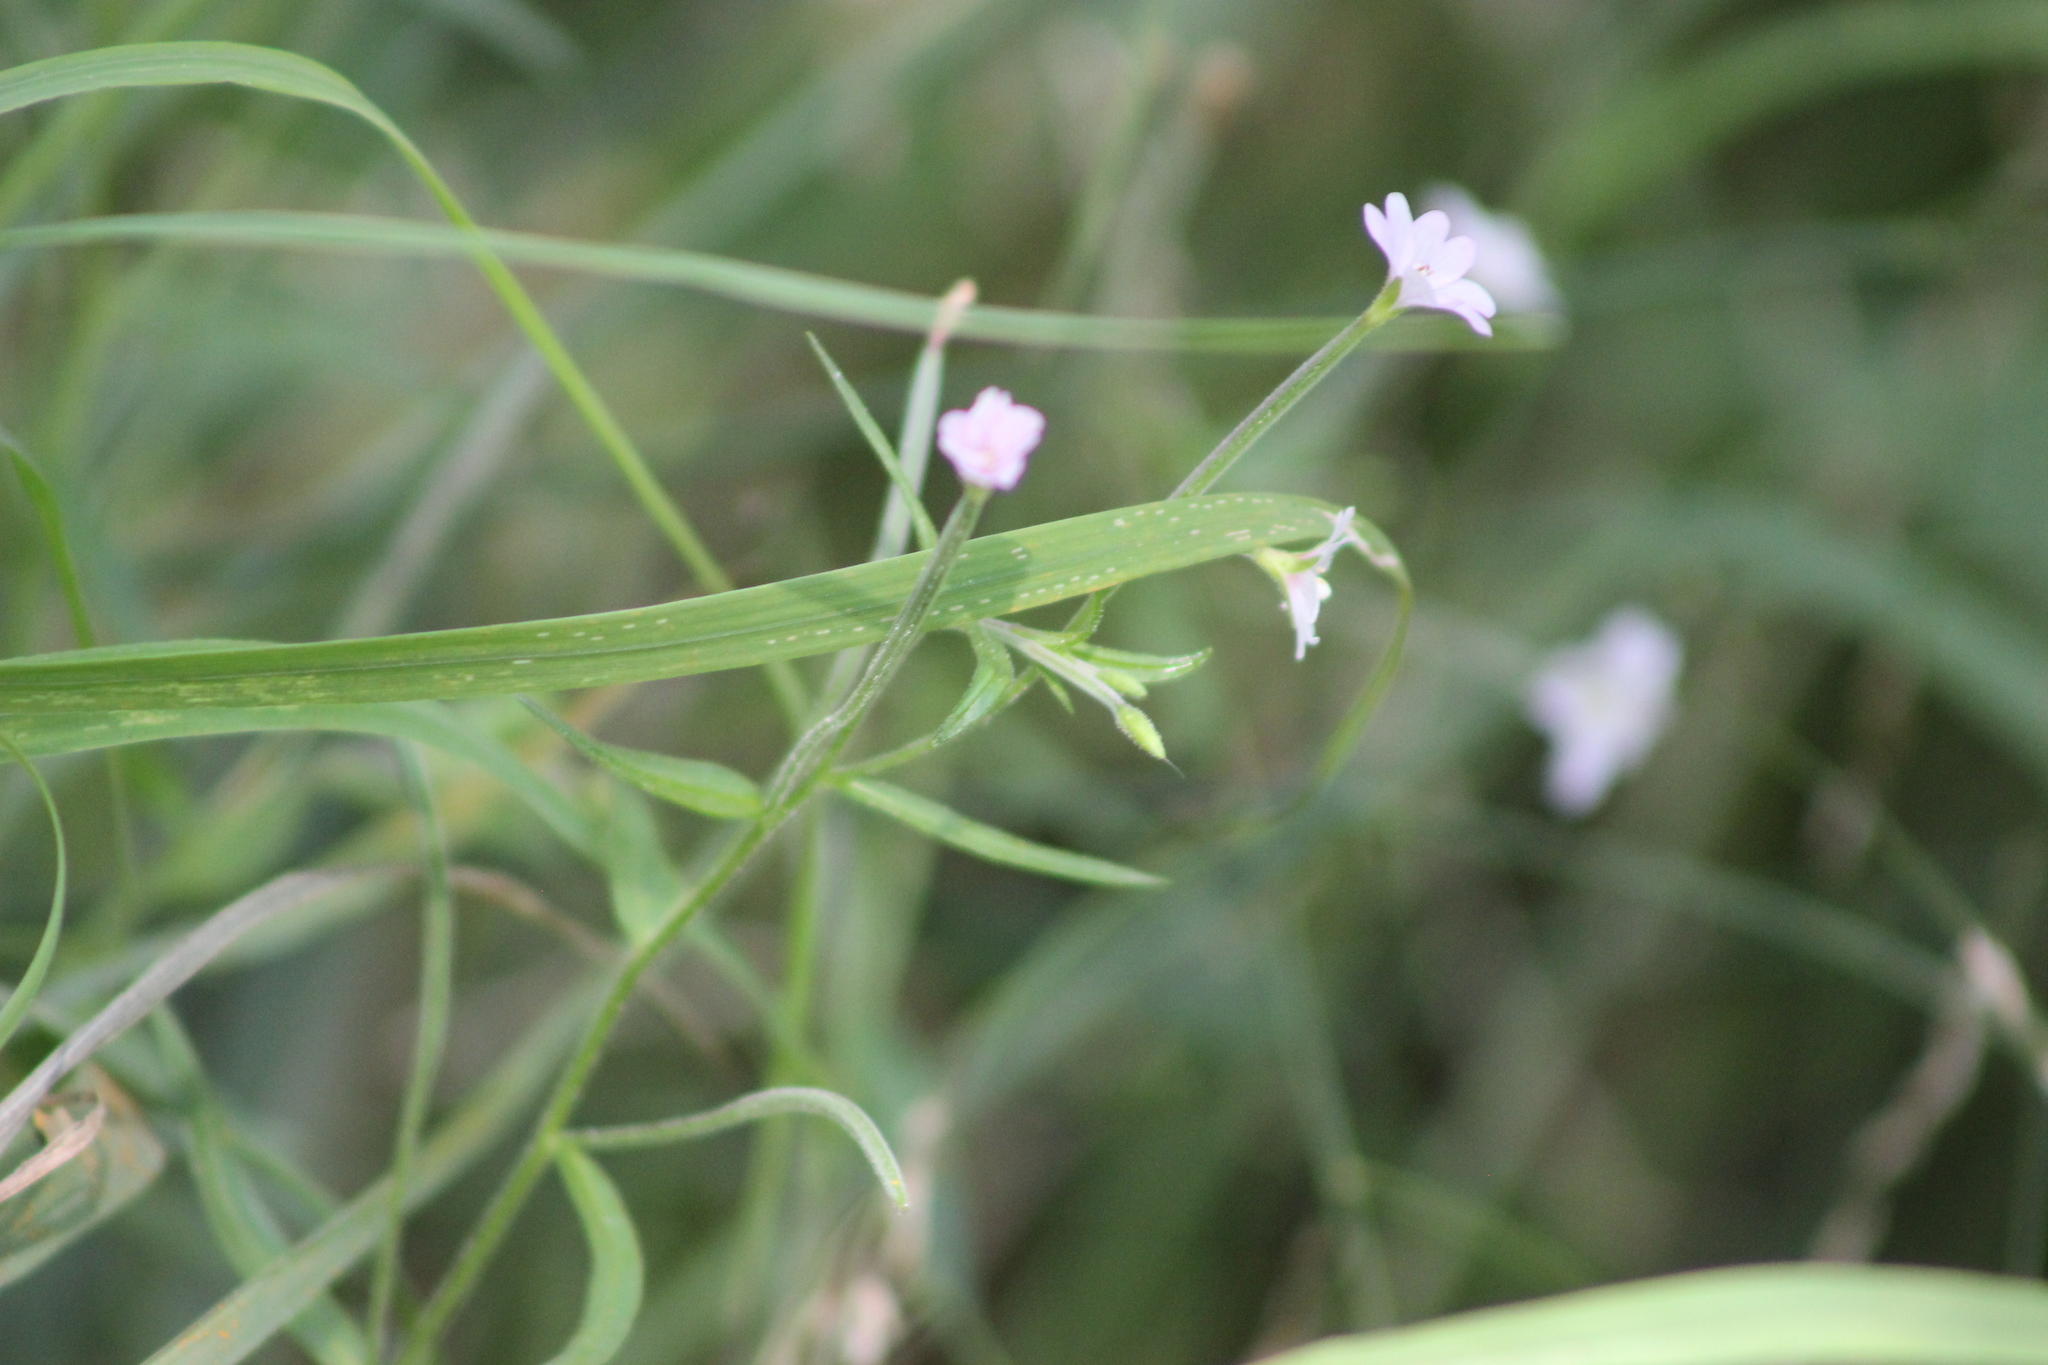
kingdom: Plantae
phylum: Tracheophyta
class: Magnoliopsida
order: Myrtales
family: Onagraceae
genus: Epilobium
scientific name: Epilobium palustre
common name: Marsh willowherb
